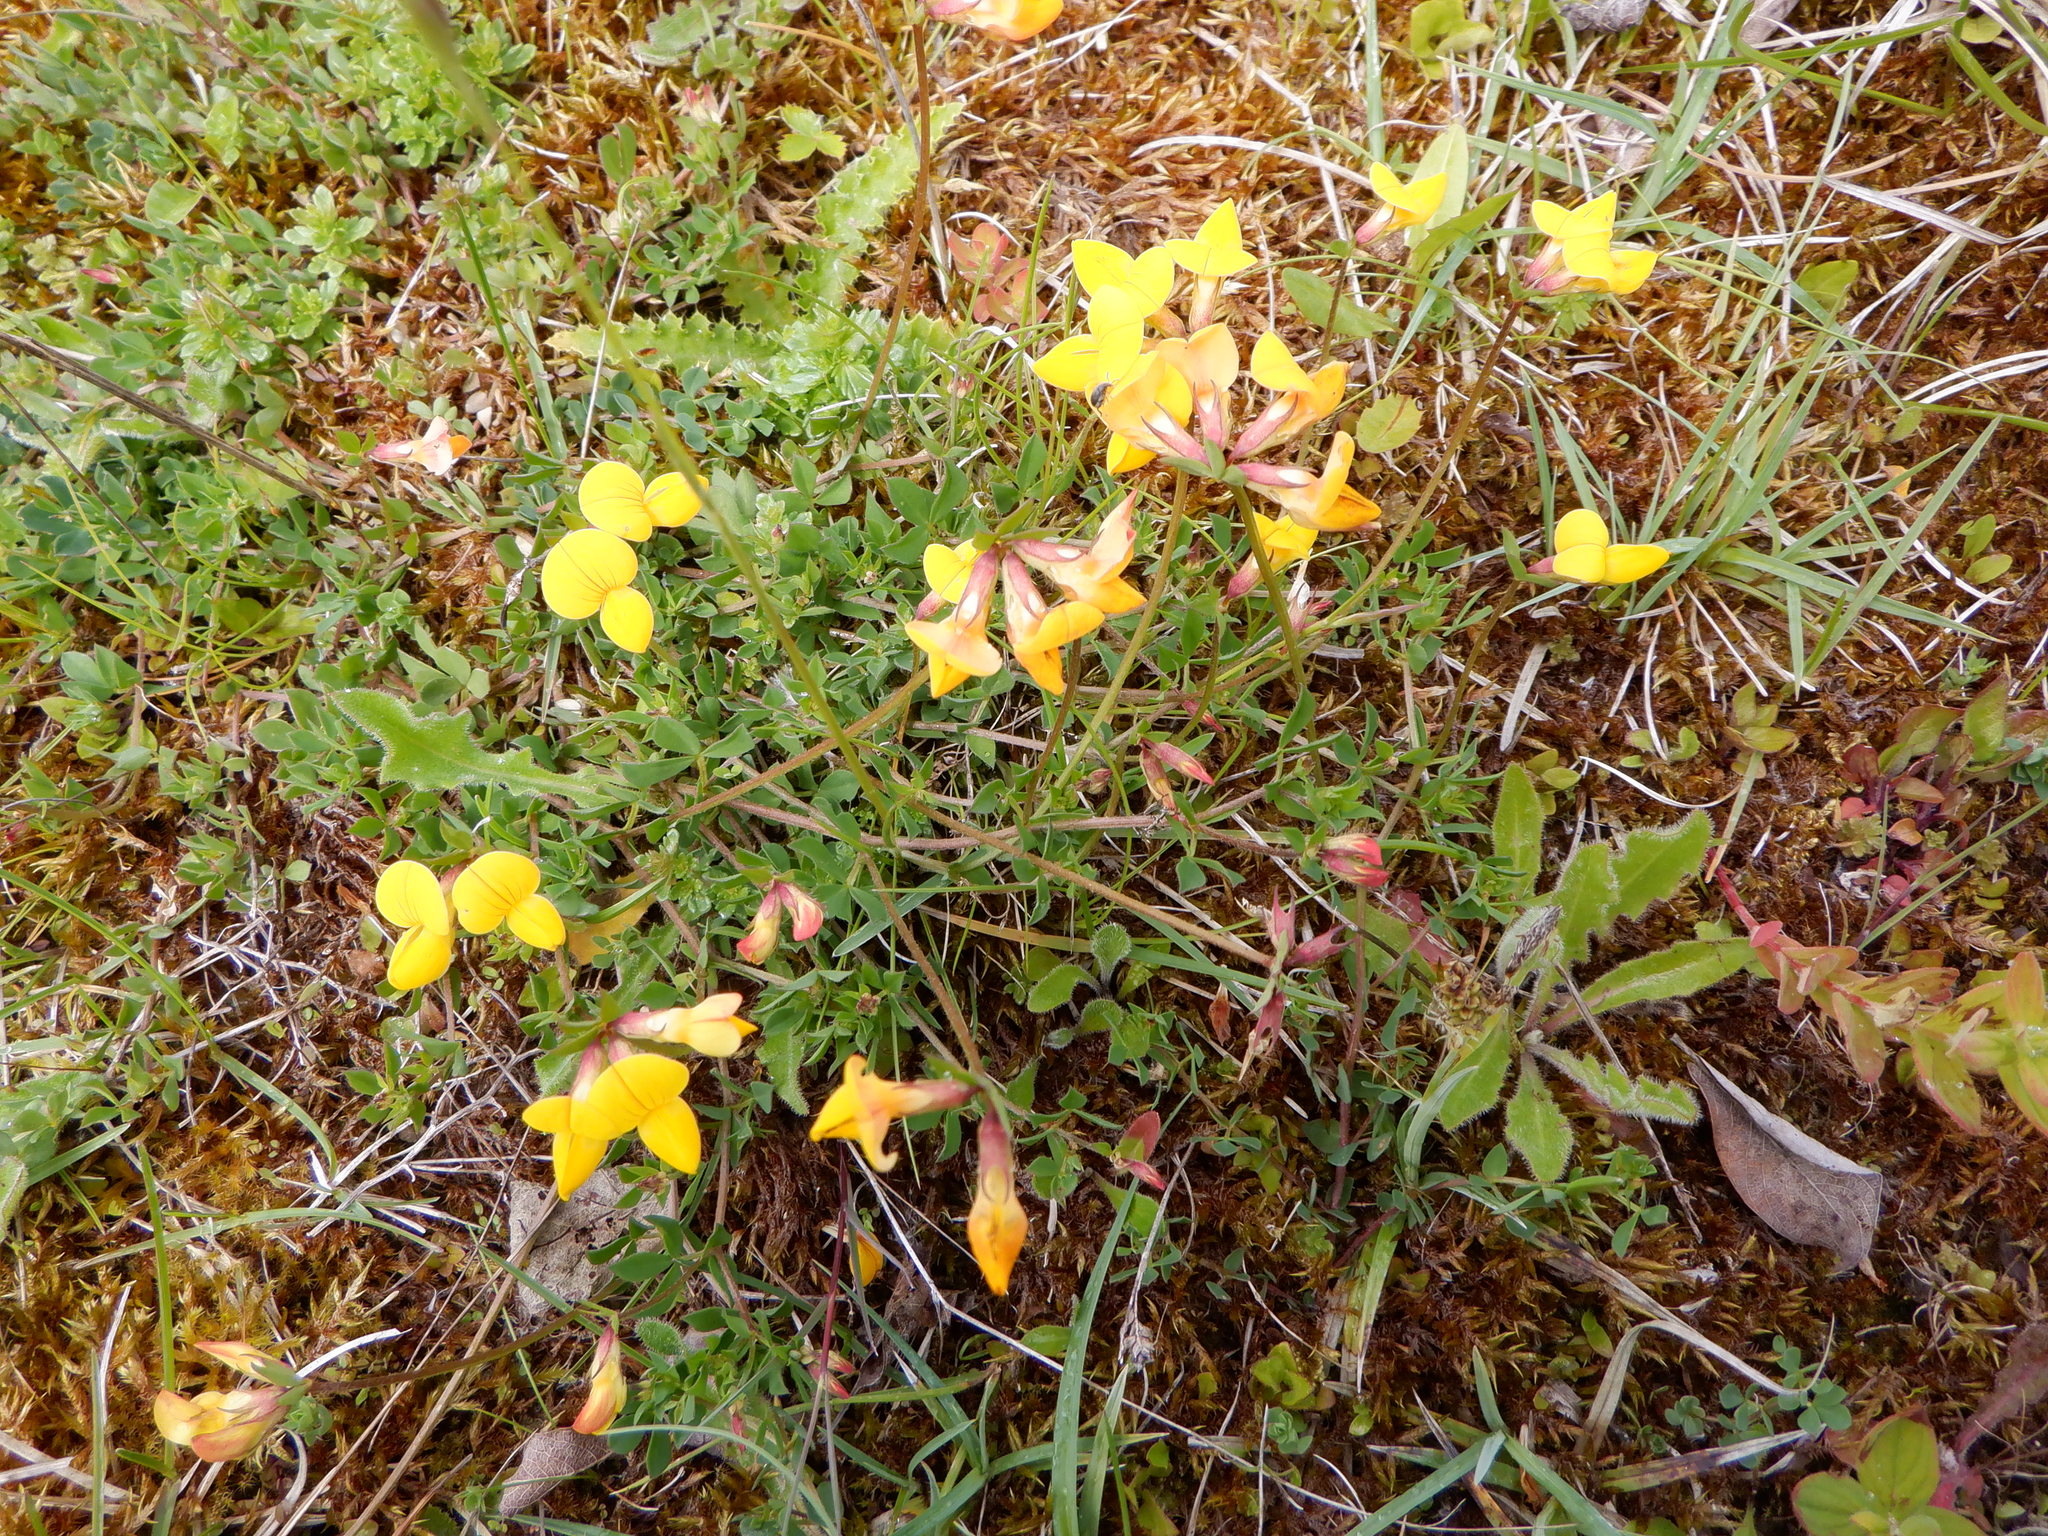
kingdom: Plantae
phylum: Tracheophyta
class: Magnoliopsida
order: Fabales
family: Fabaceae
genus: Lotus
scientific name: Lotus corniculatus
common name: Common bird's-foot-trefoil
